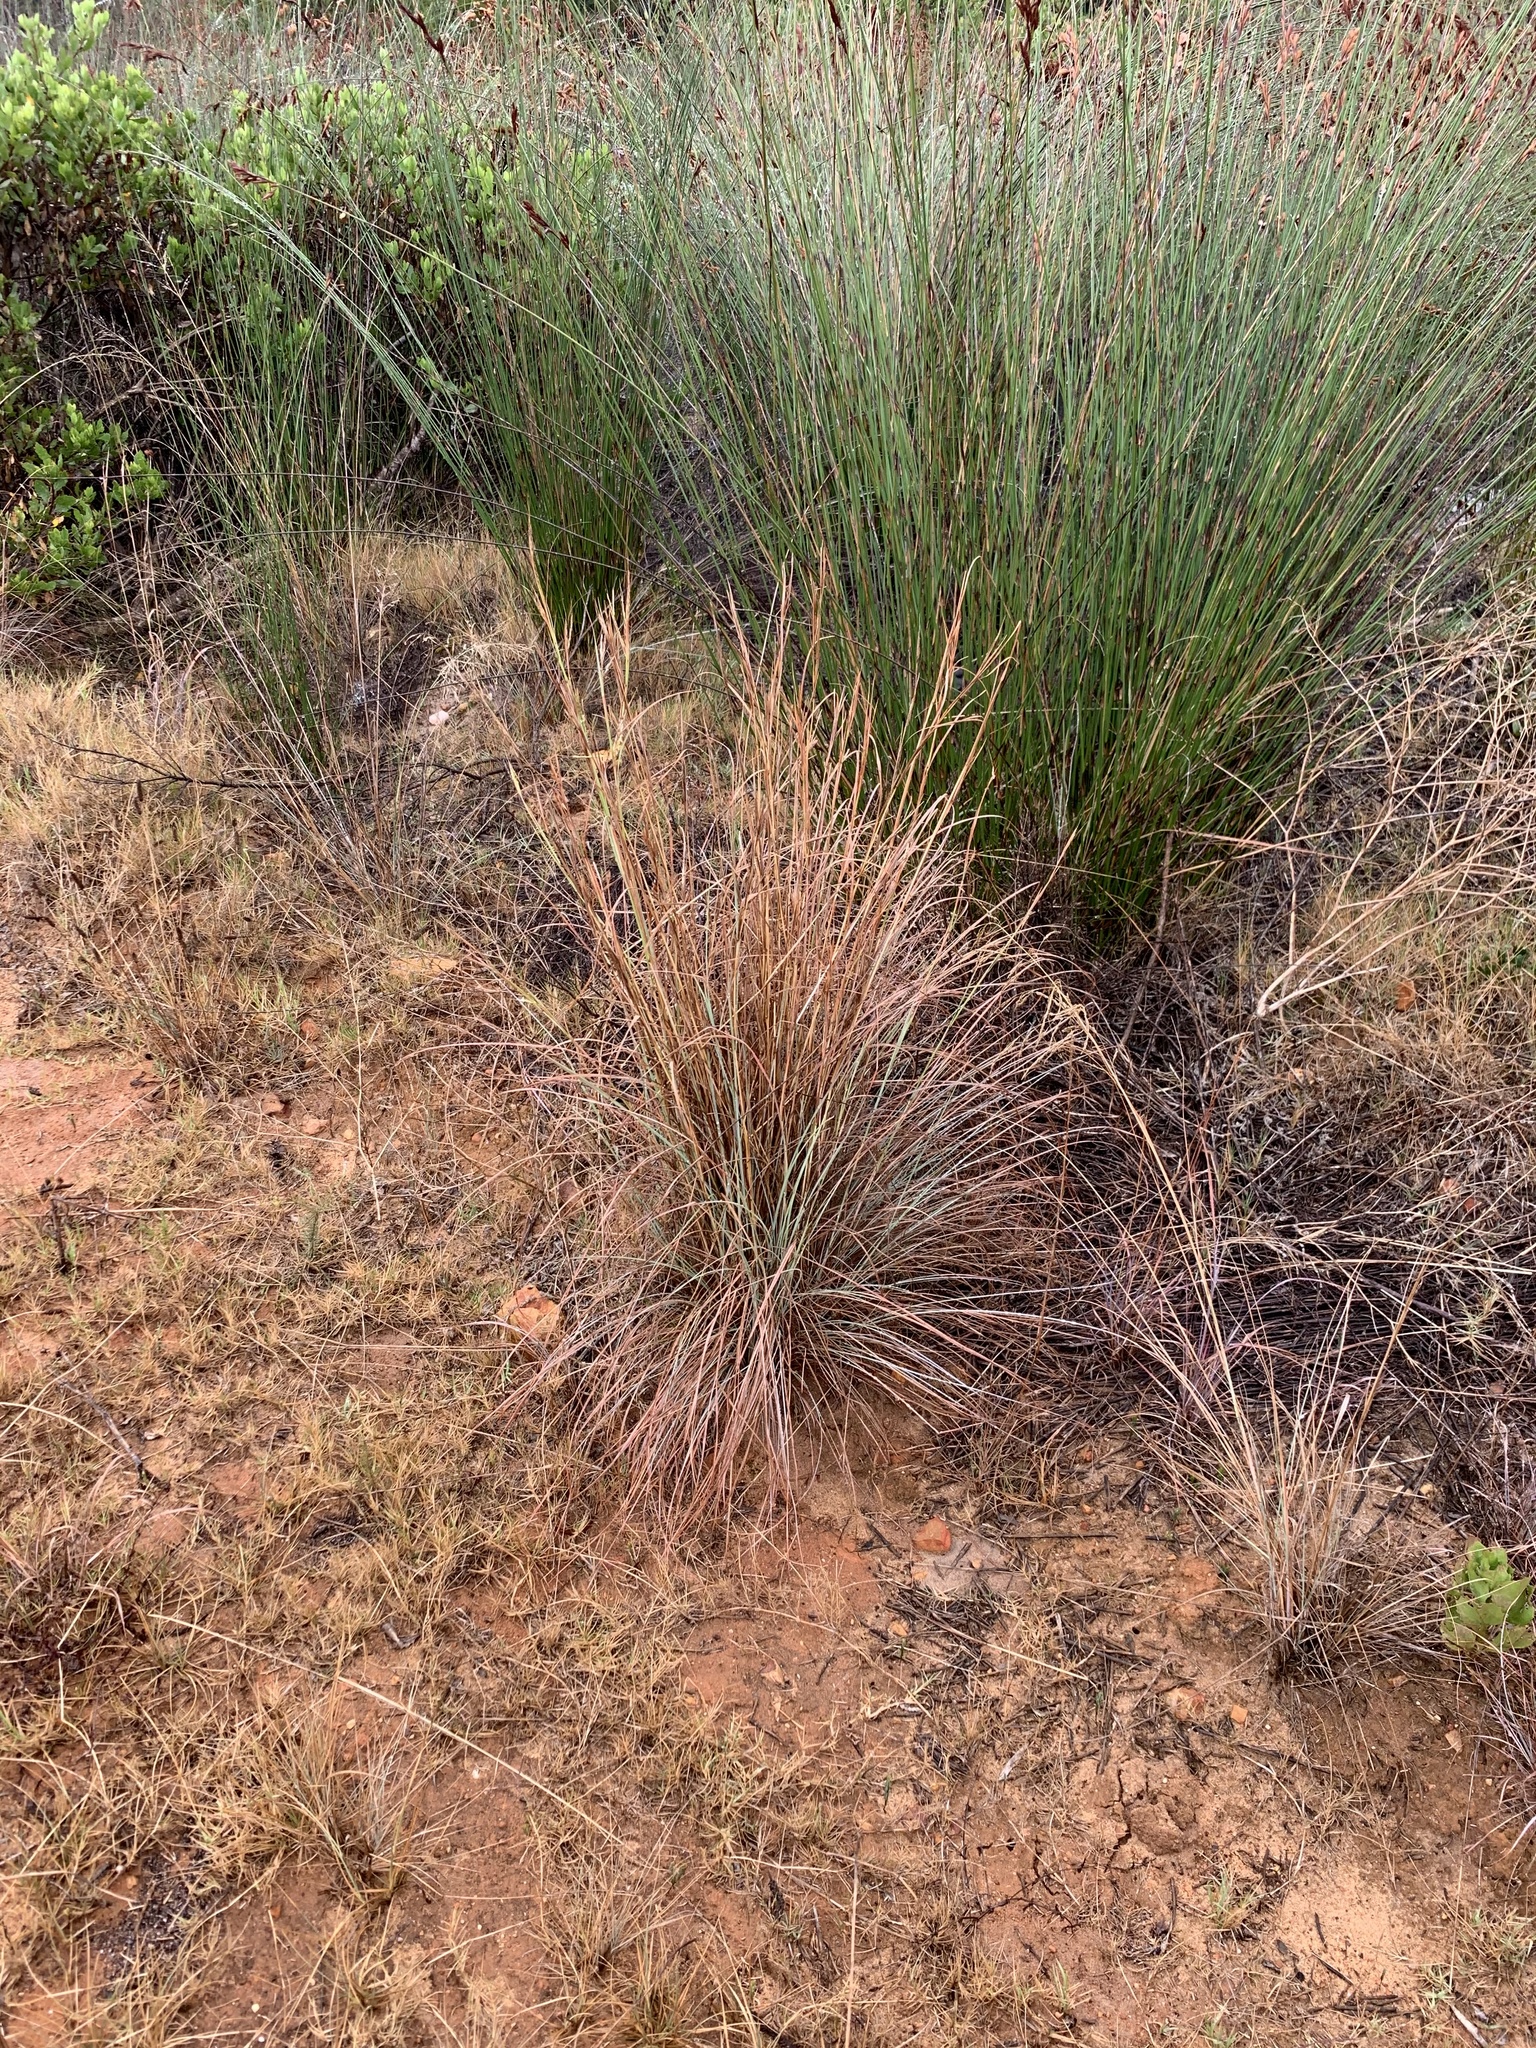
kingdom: Plantae
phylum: Tracheophyta
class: Liliopsida
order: Poales
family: Poaceae
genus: Hyparrhenia
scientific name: Hyparrhenia hirta
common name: Thatching grass
